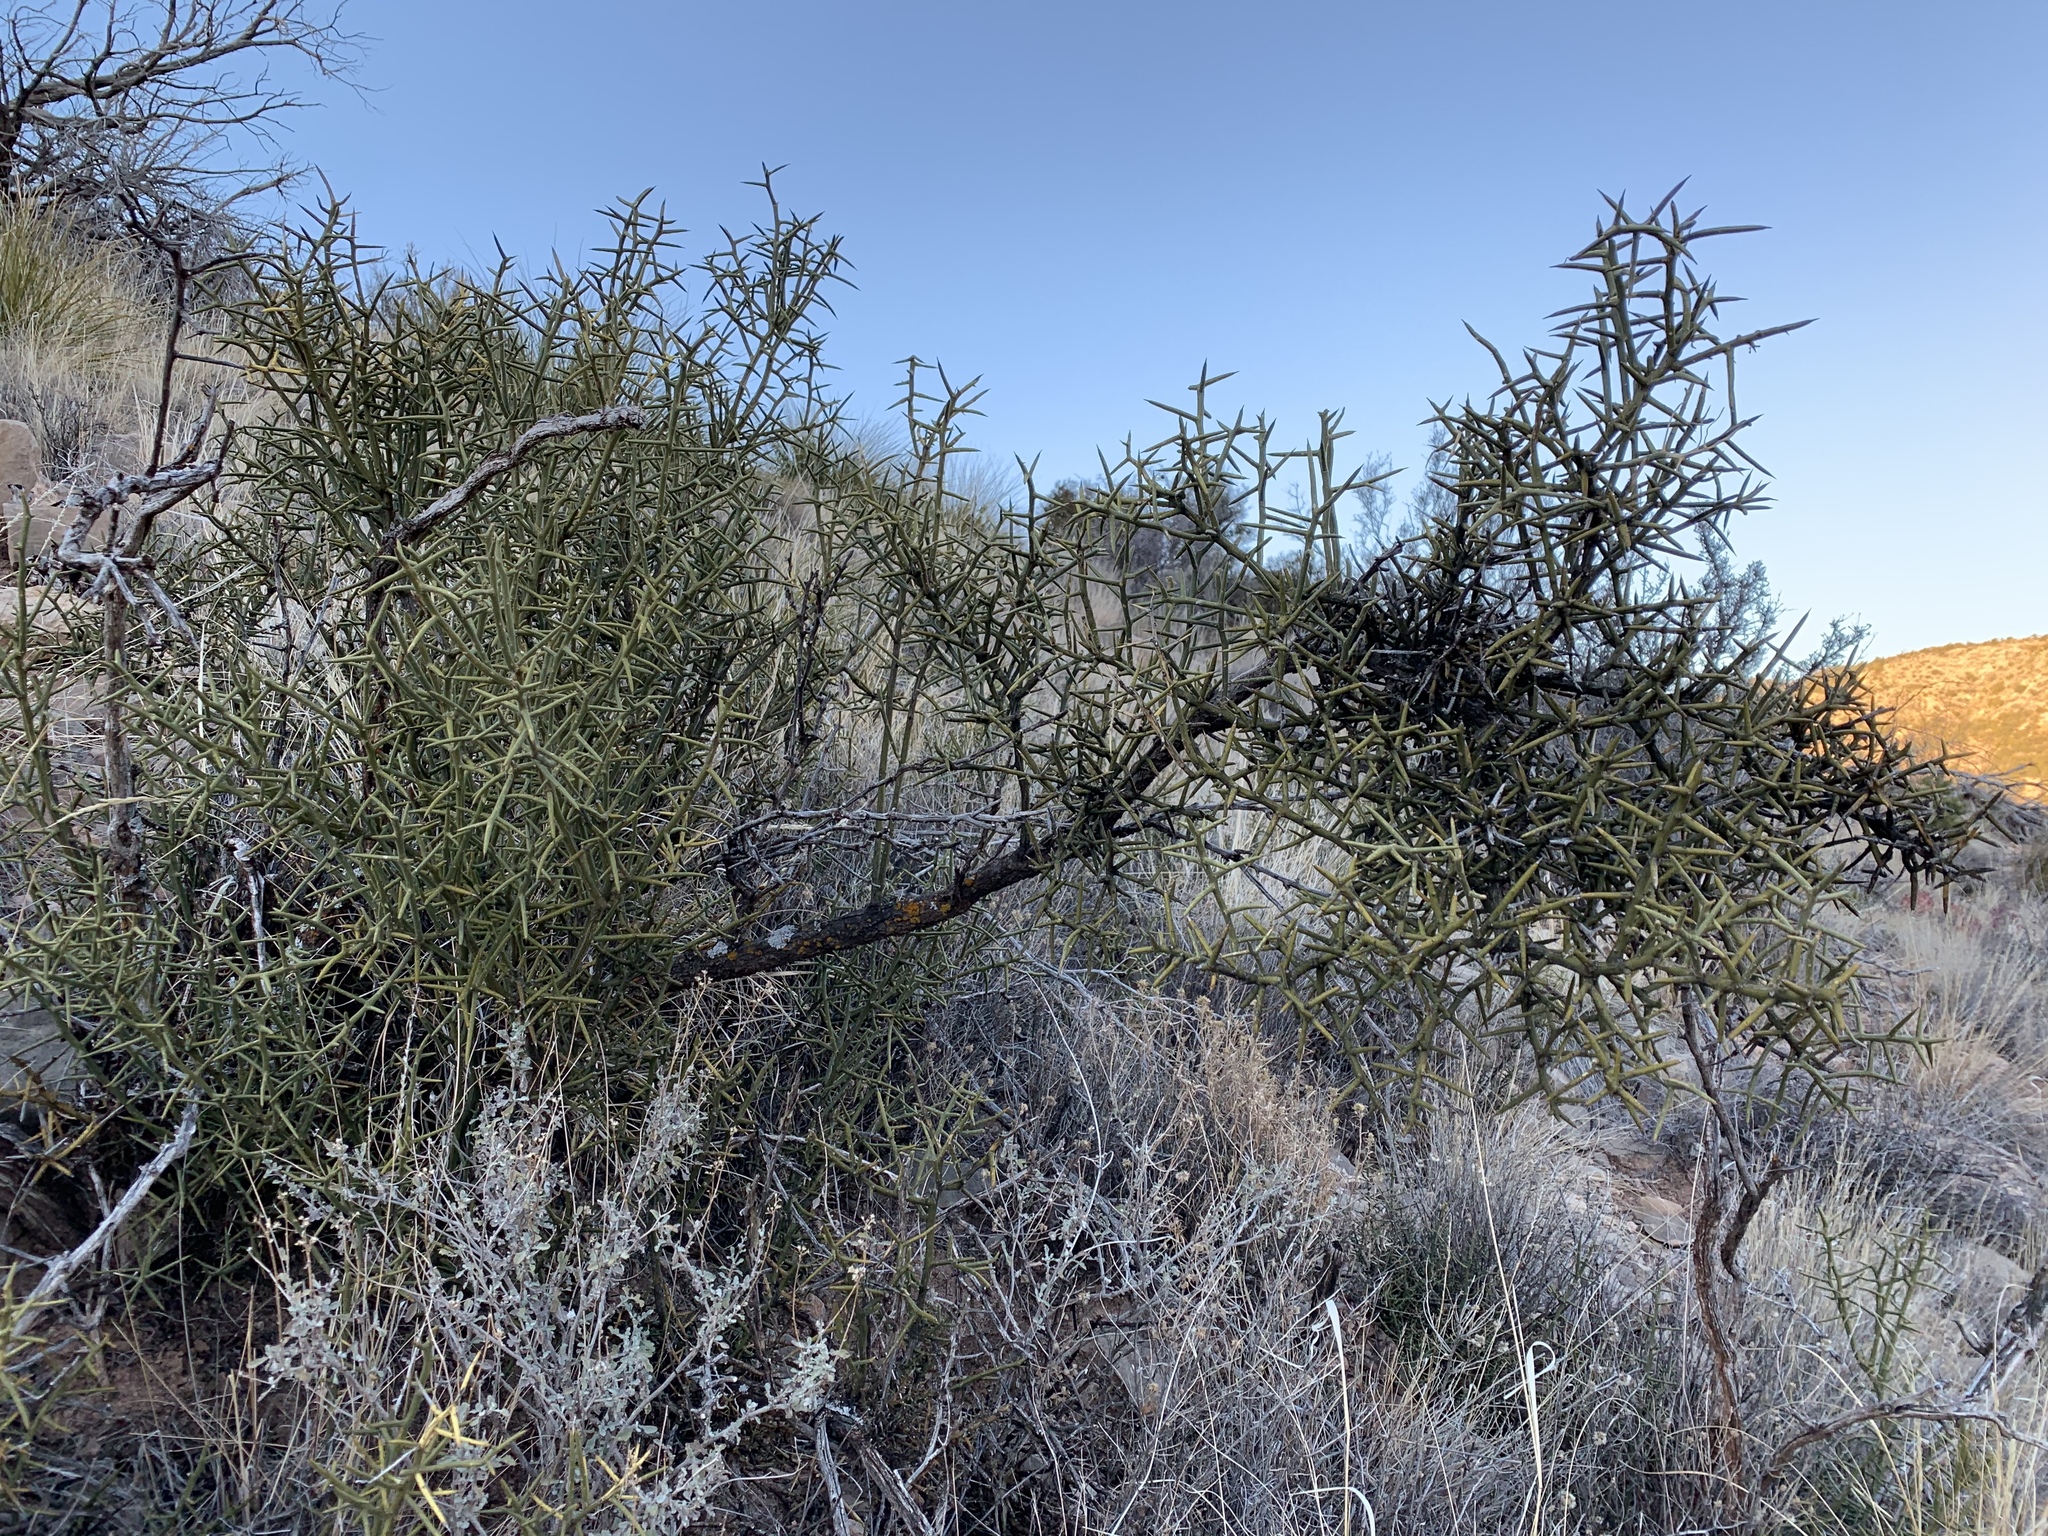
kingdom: Plantae
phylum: Tracheophyta
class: Magnoliopsida
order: Brassicales
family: Koeberliniaceae
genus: Koeberlinia
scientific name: Koeberlinia spinosa
